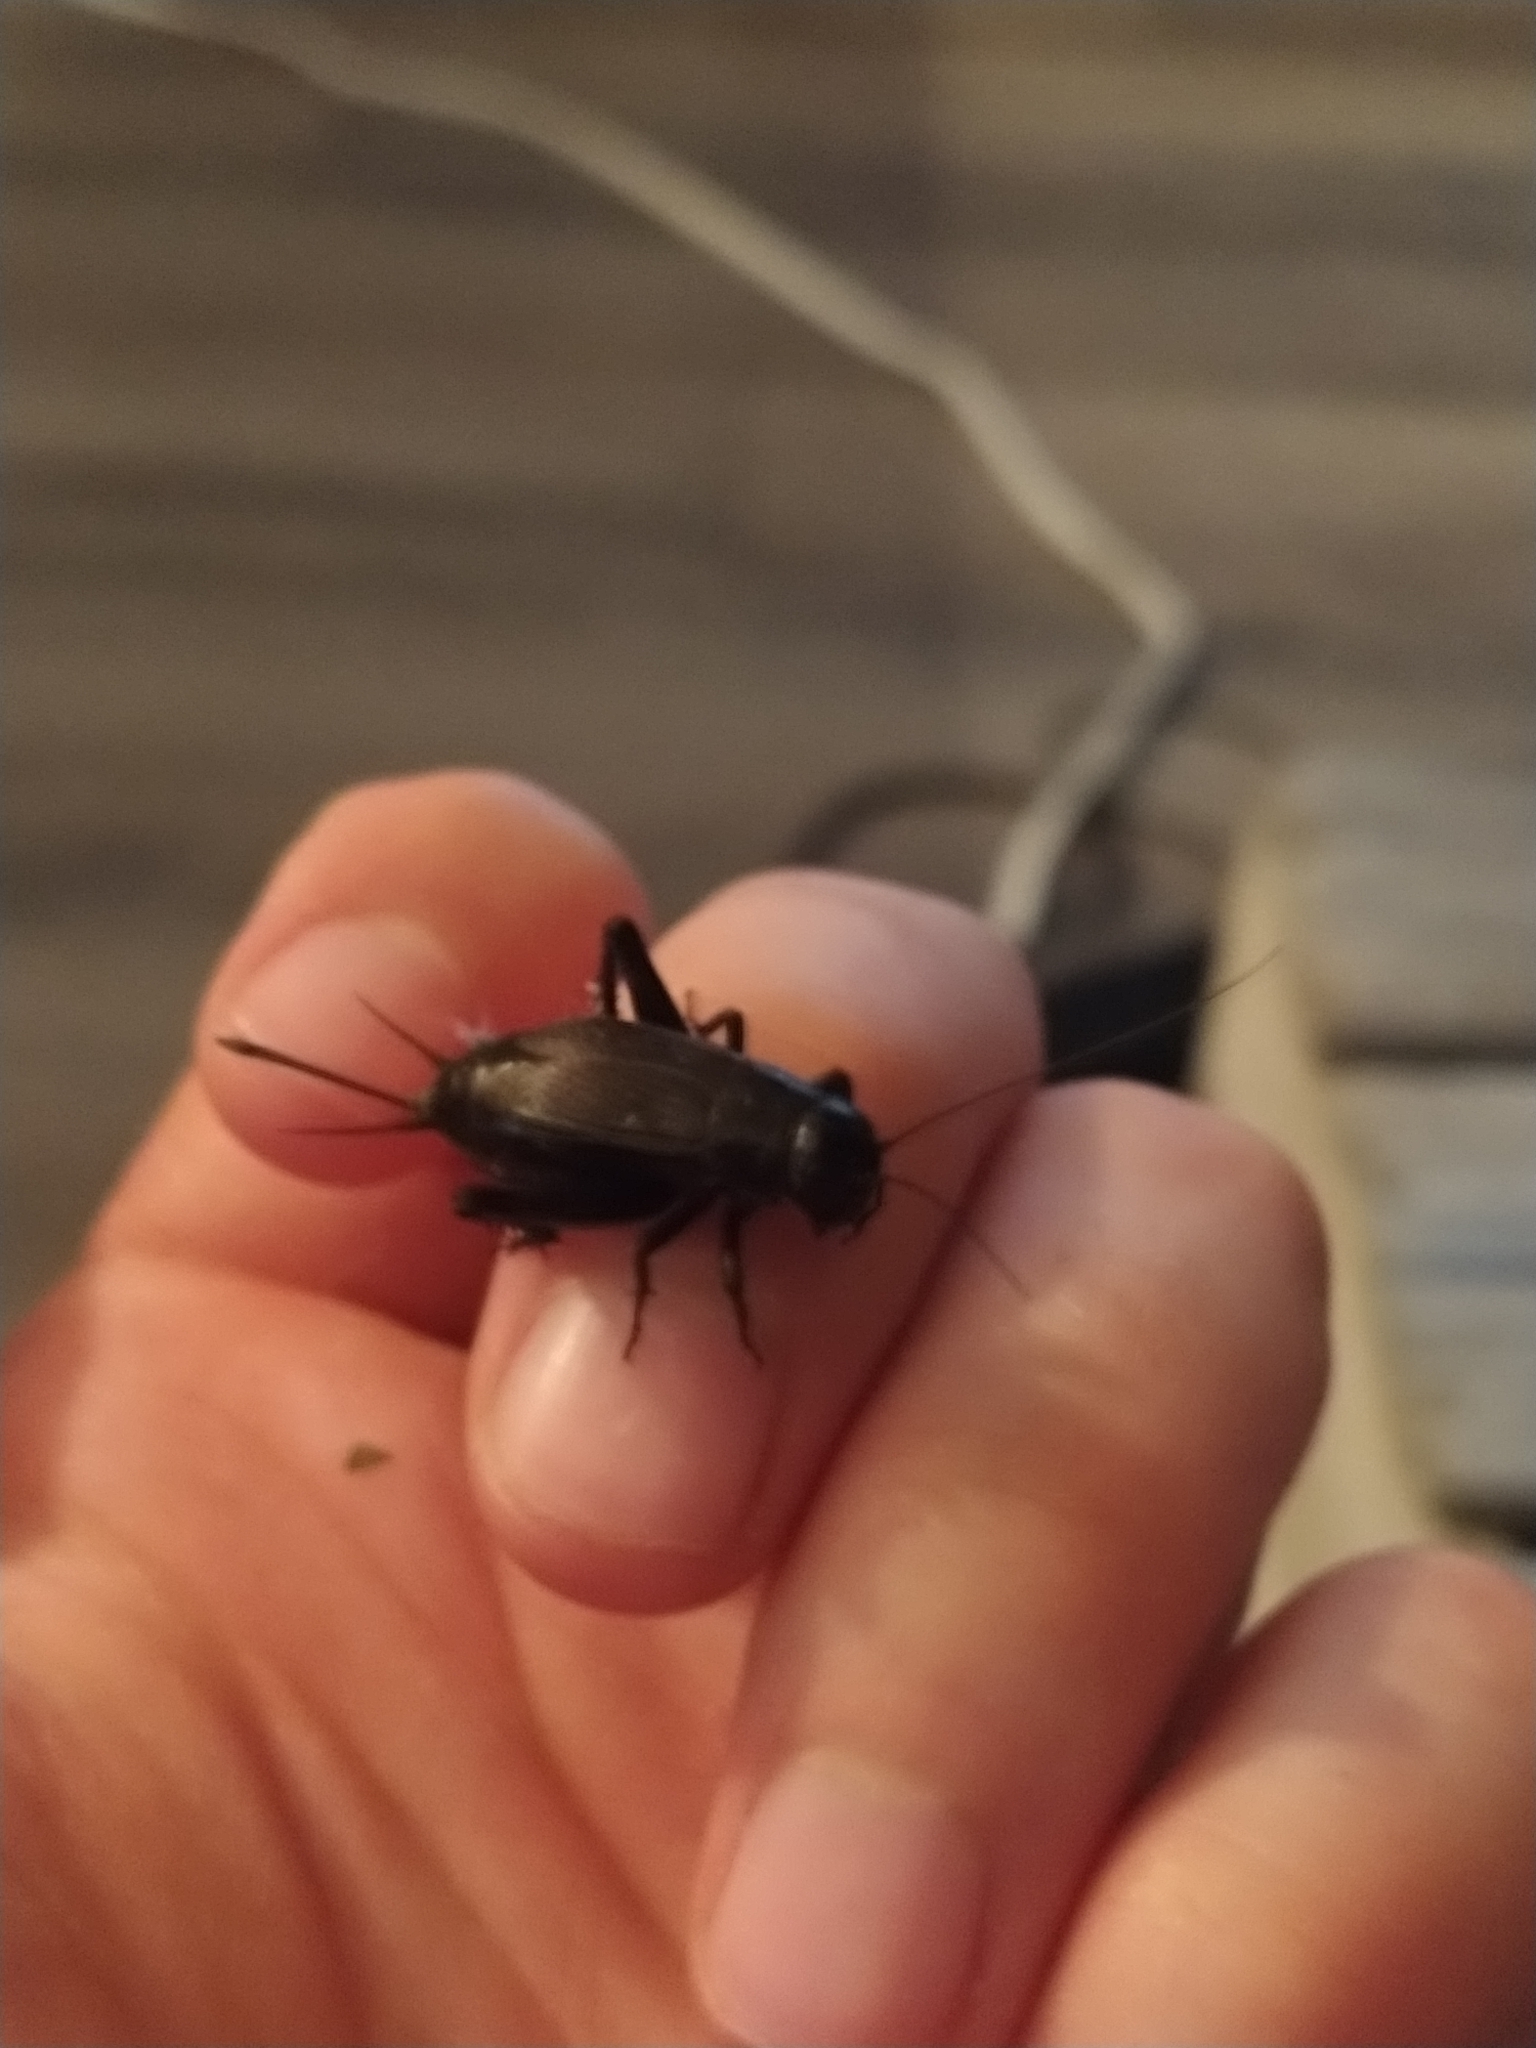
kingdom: Animalia
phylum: Arthropoda
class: Insecta
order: Orthoptera
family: Gryllidae
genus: Gryllus
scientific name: Gryllus veletis
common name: Spring field cricket
